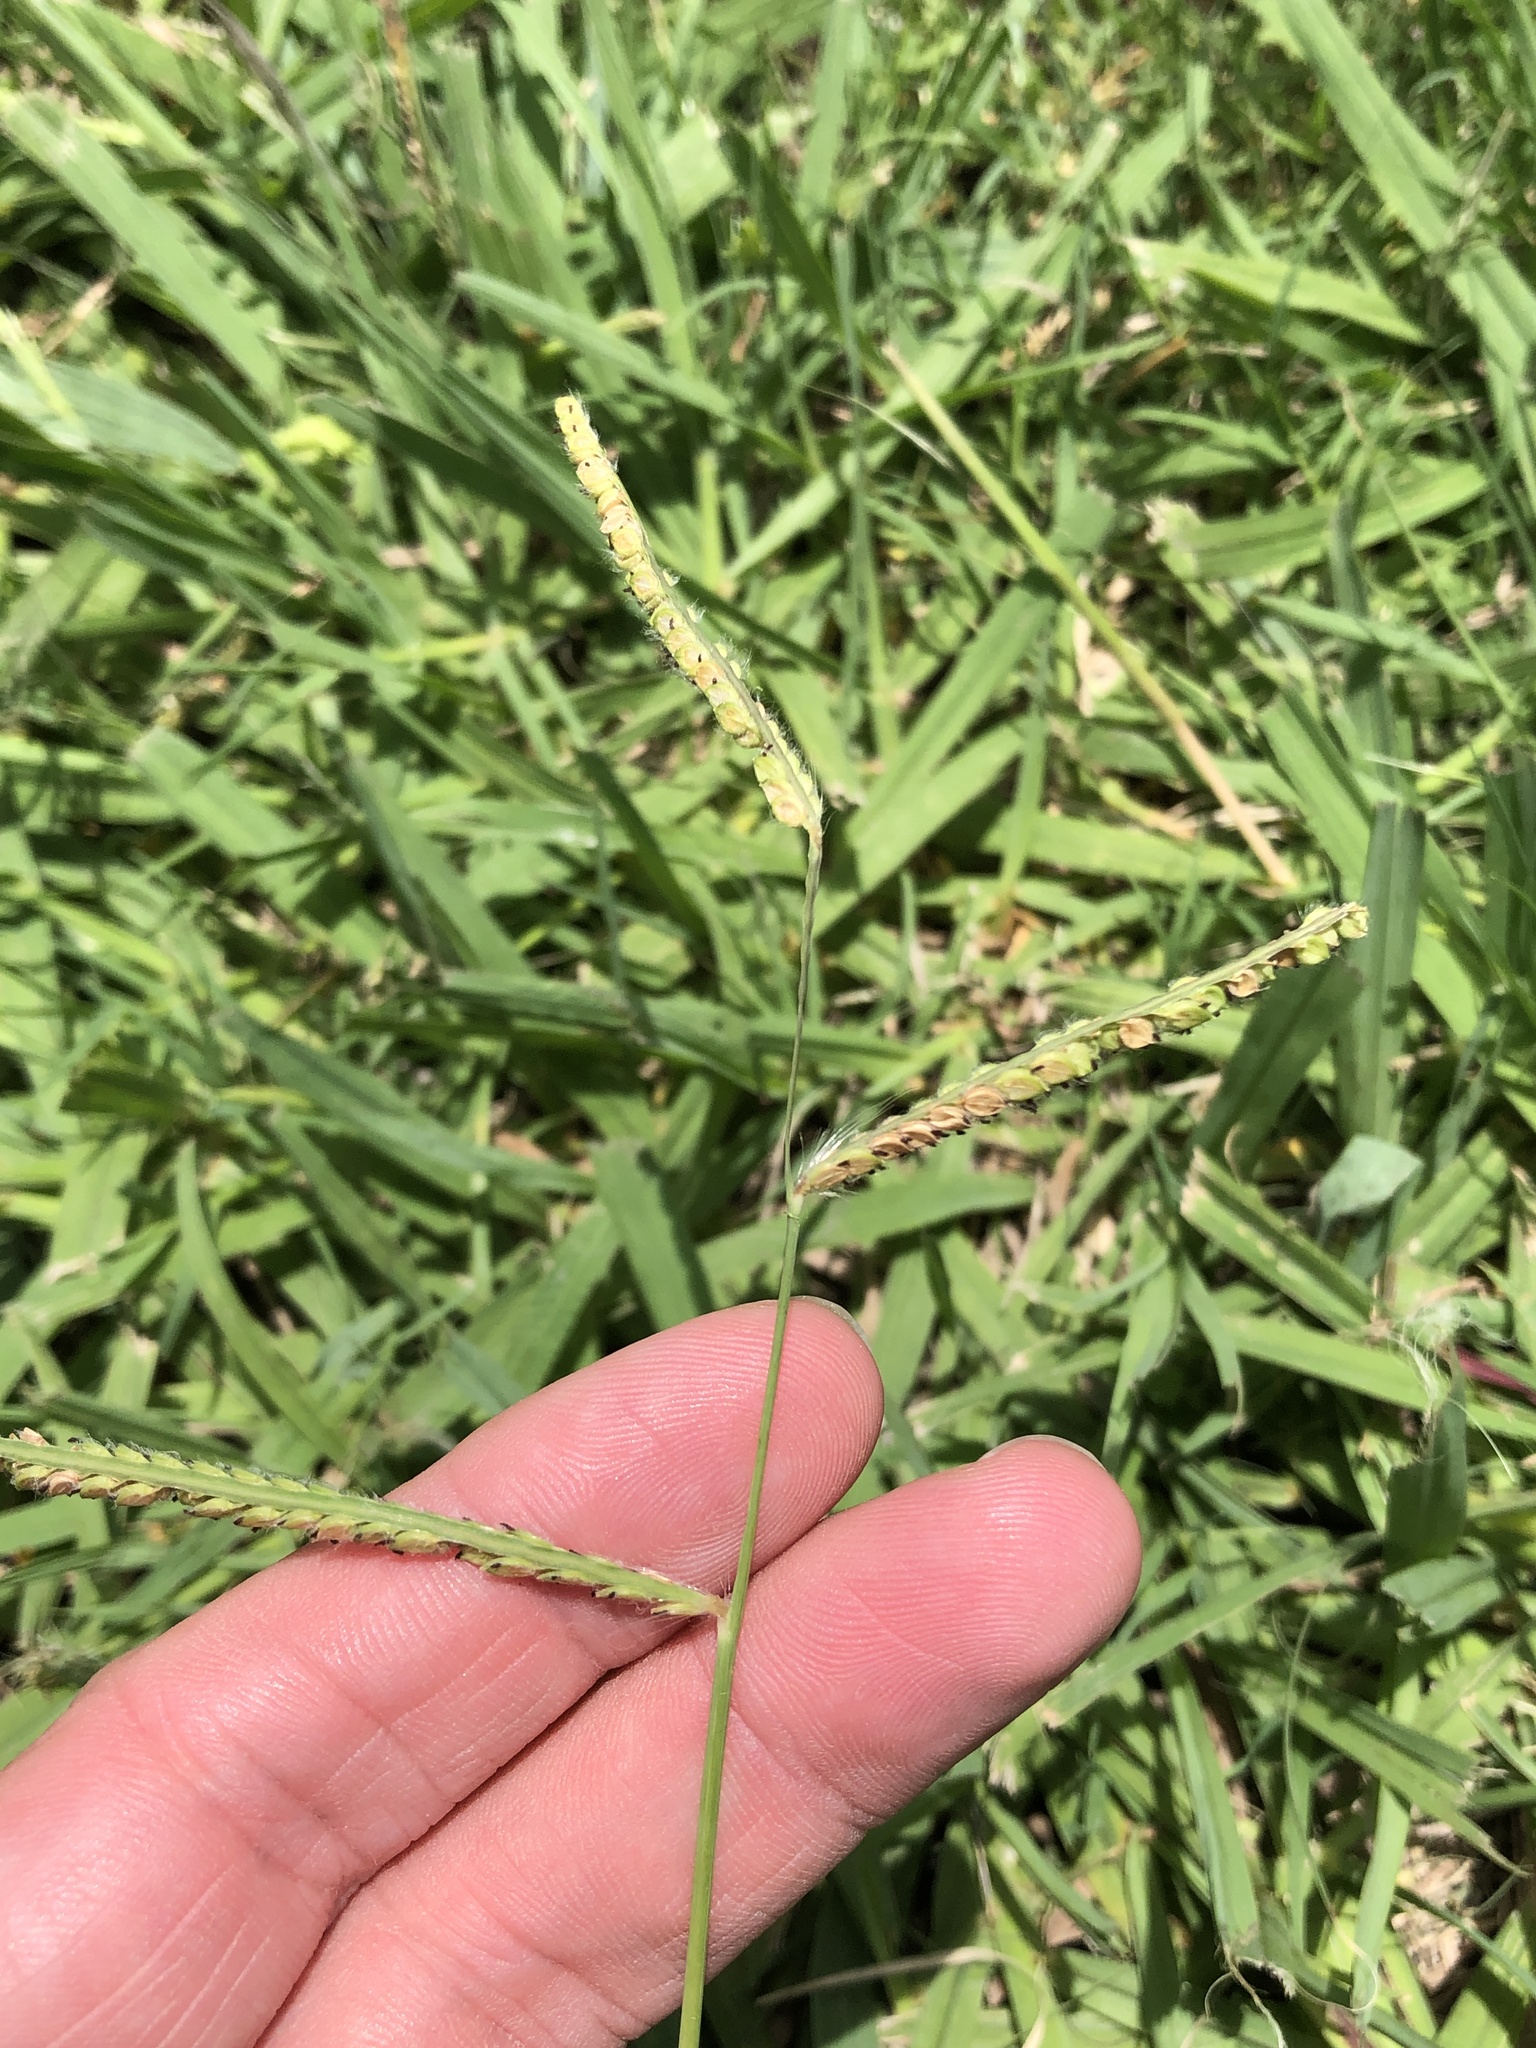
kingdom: Plantae
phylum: Tracheophyta
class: Liliopsida
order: Poales
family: Poaceae
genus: Paspalum
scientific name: Paspalum dilatatum
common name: Dallisgrass
